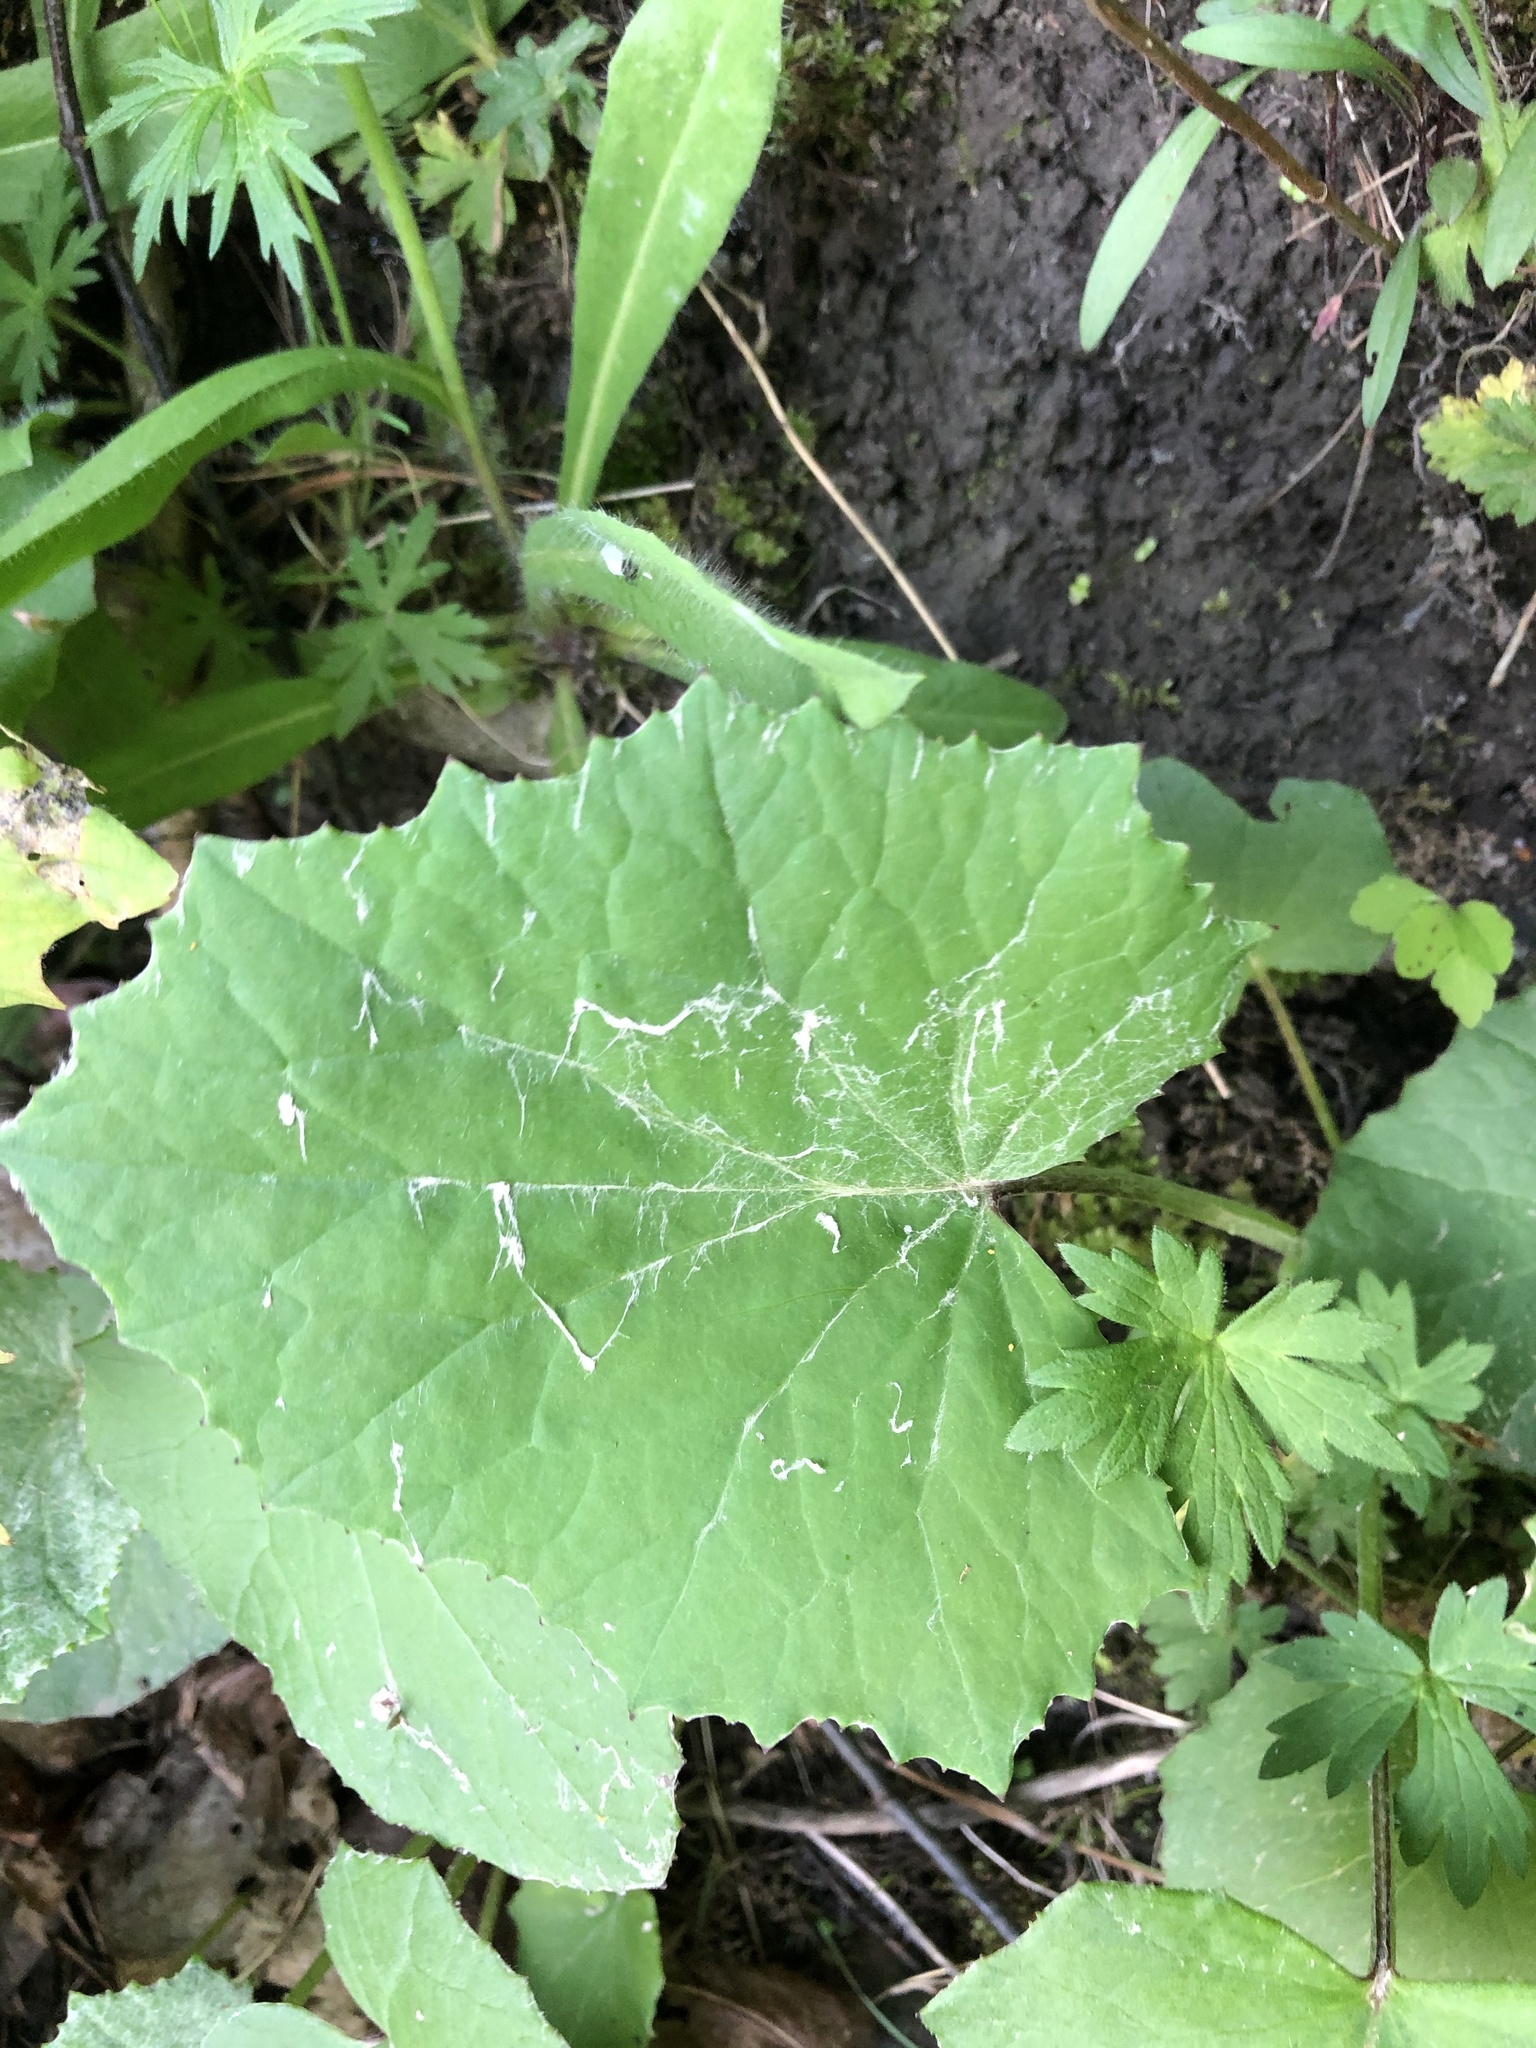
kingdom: Plantae
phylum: Tracheophyta
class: Magnoliopsida
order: Asterales
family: Asteraceae
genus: Tussilago
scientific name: Tussilago farfara
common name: Coltsfoot
